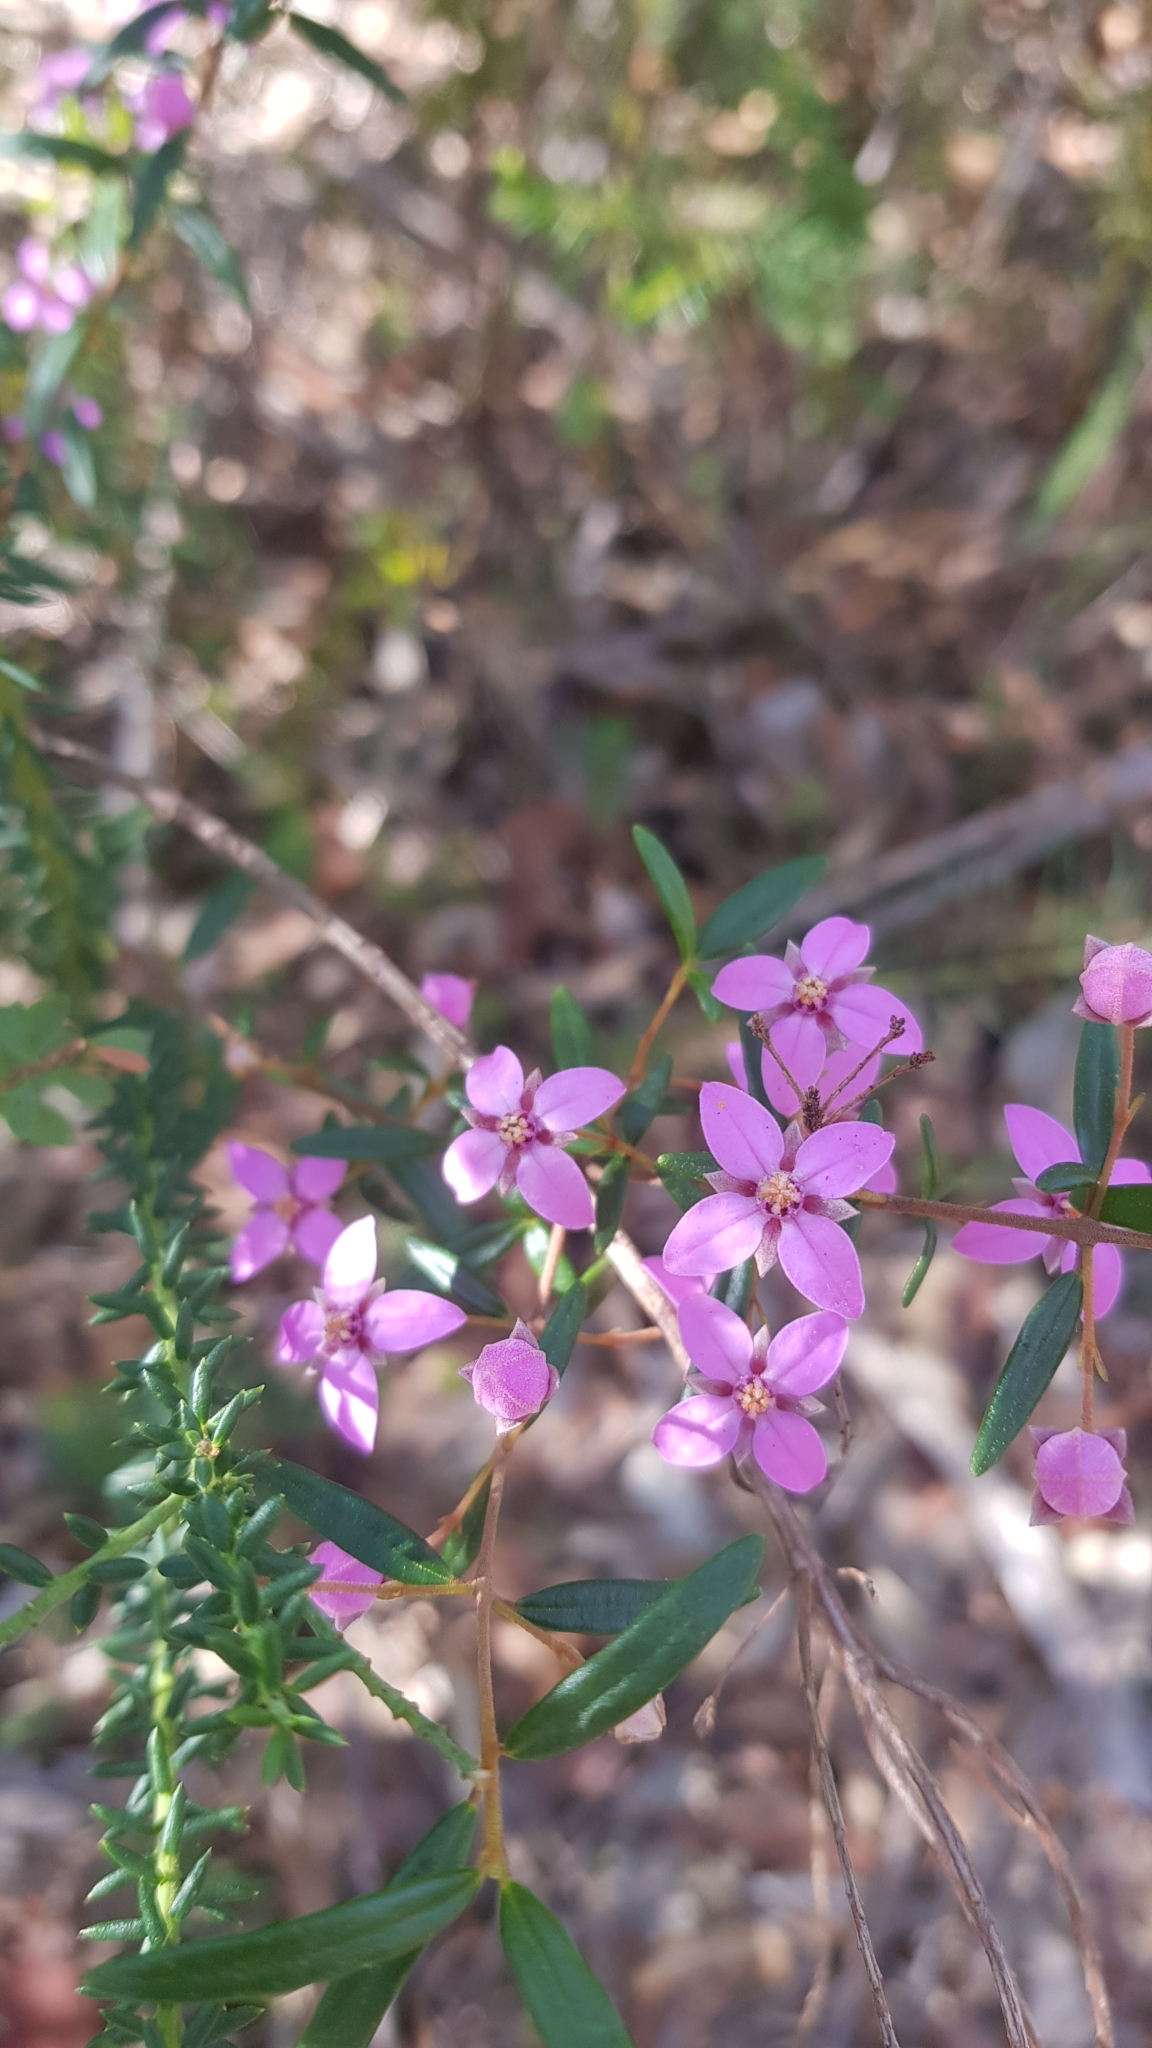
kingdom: Plantae
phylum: Tracheophyta
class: Magnoliopsida
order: Sapindales
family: Rutaceae
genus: Boronia
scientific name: Boronia ledifolia
